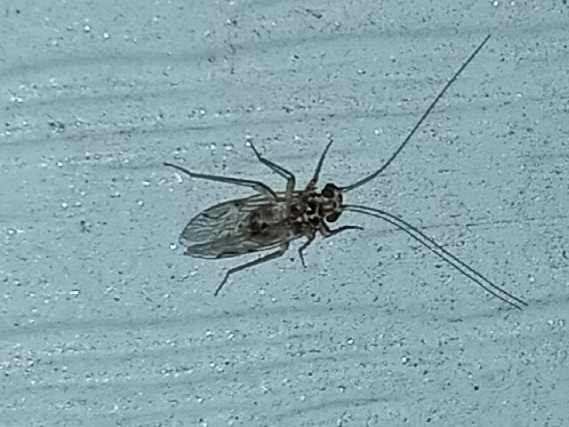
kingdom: Animalia
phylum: Arthropoda
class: Insecta
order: Psocodea
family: Psocidae
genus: Metylophorus
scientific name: Metylophorus purus
